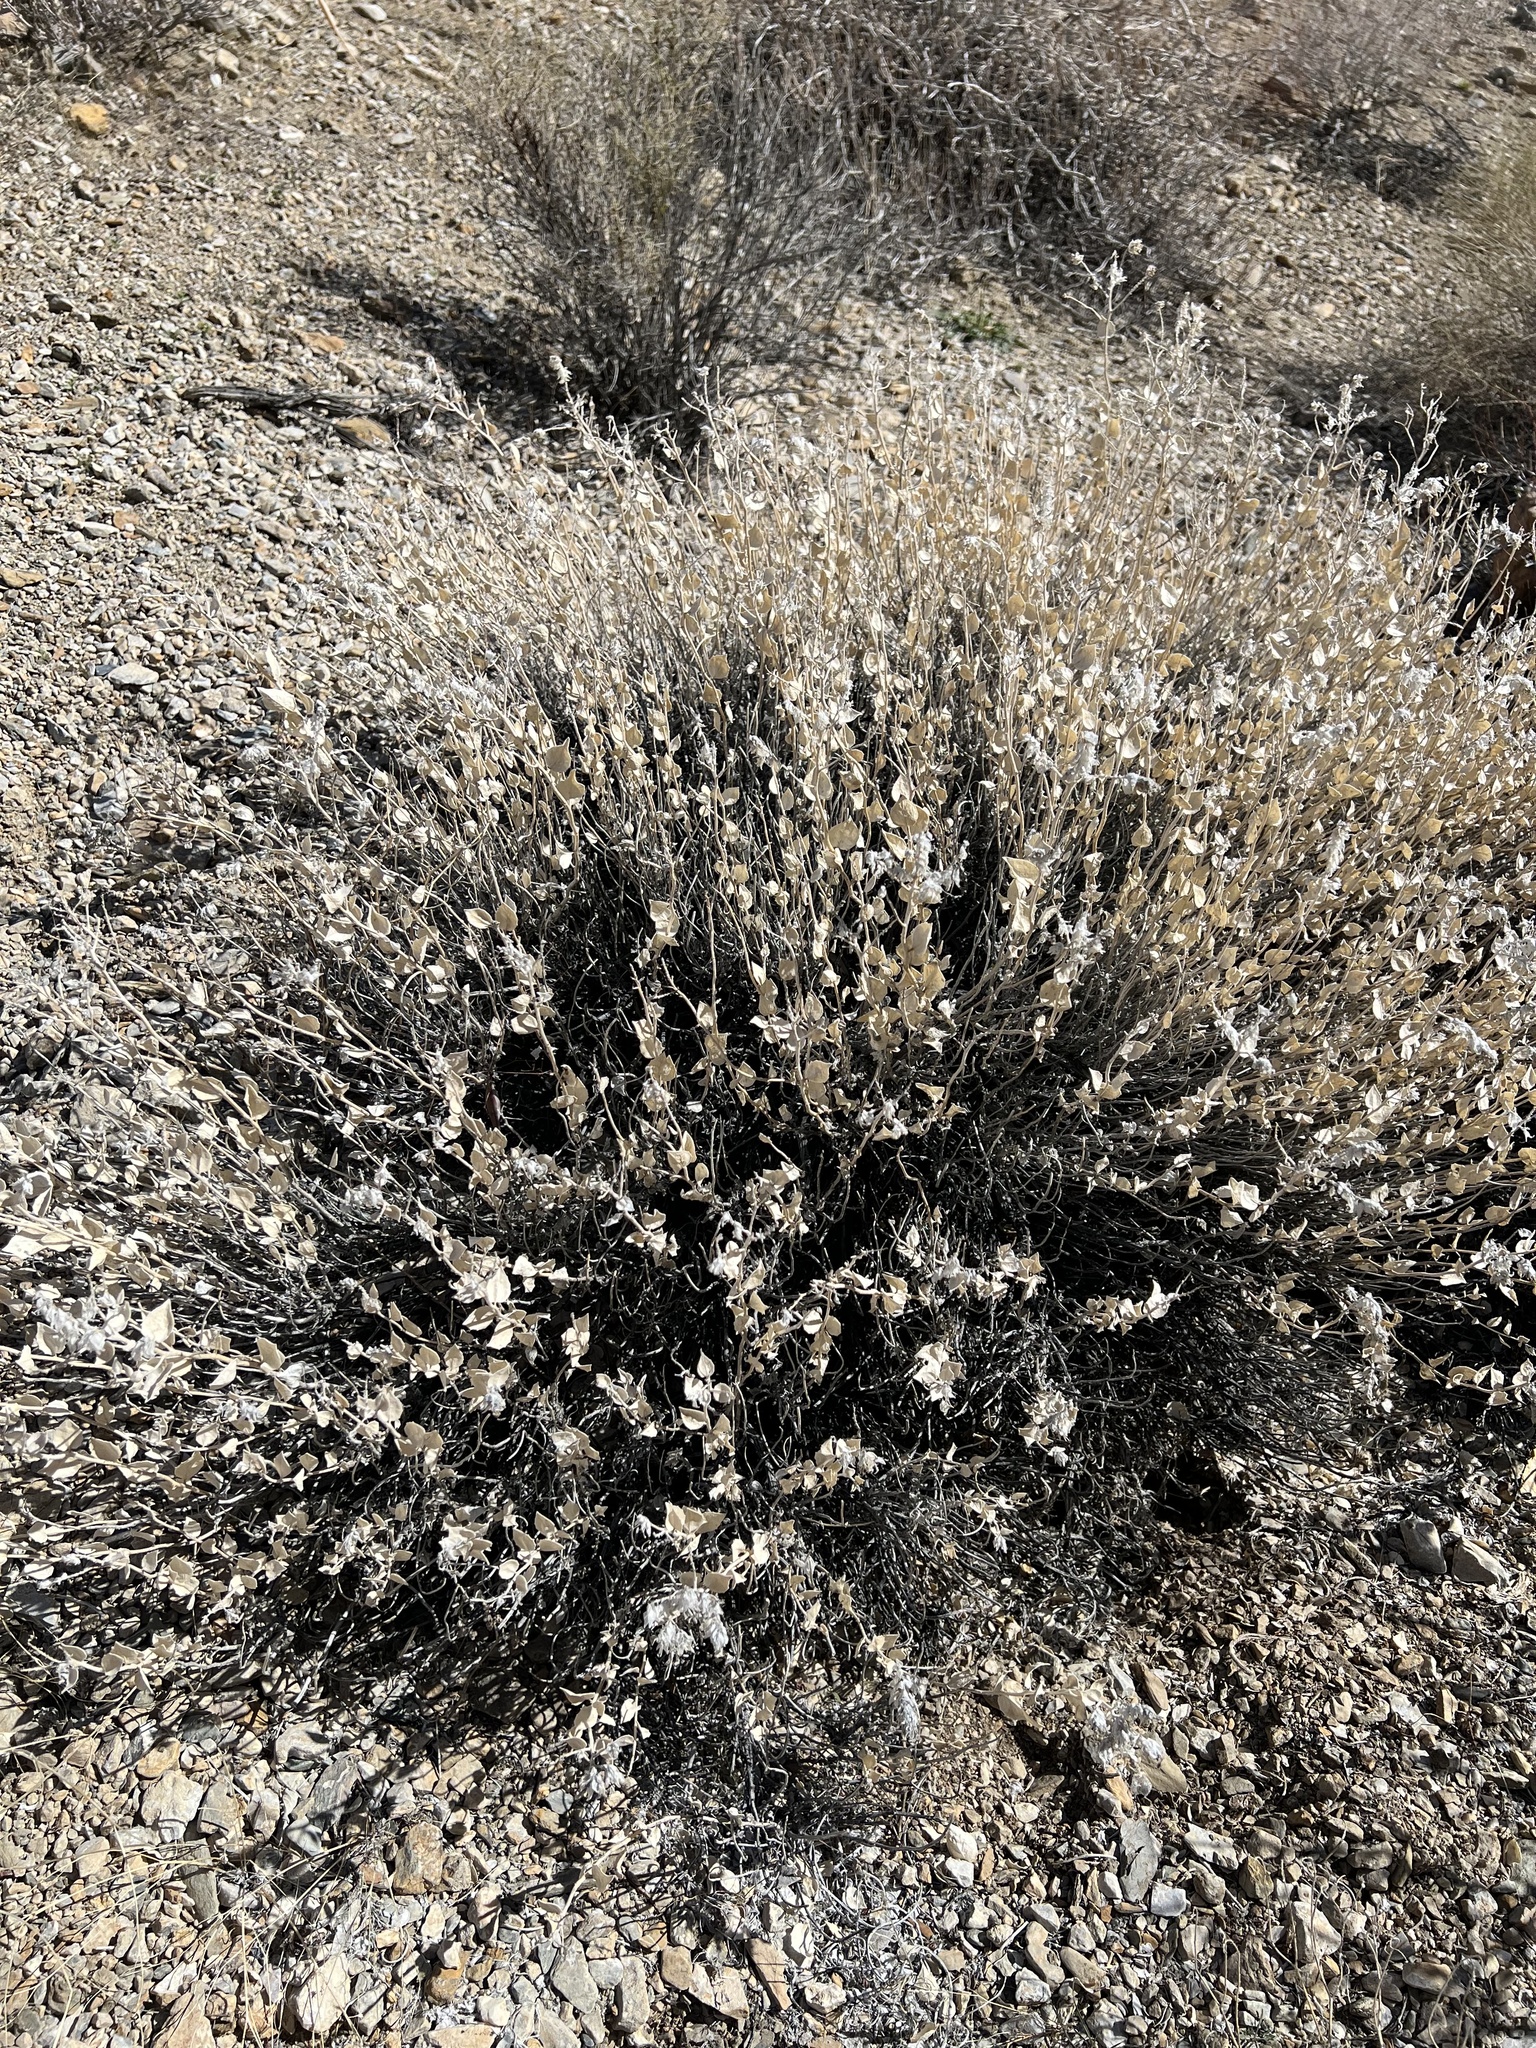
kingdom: Plantae
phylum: Tracheophyta
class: Magnoliopsida
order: Cornales
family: Loasaceae
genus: Petalonyx
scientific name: Petalonyx nitidus
